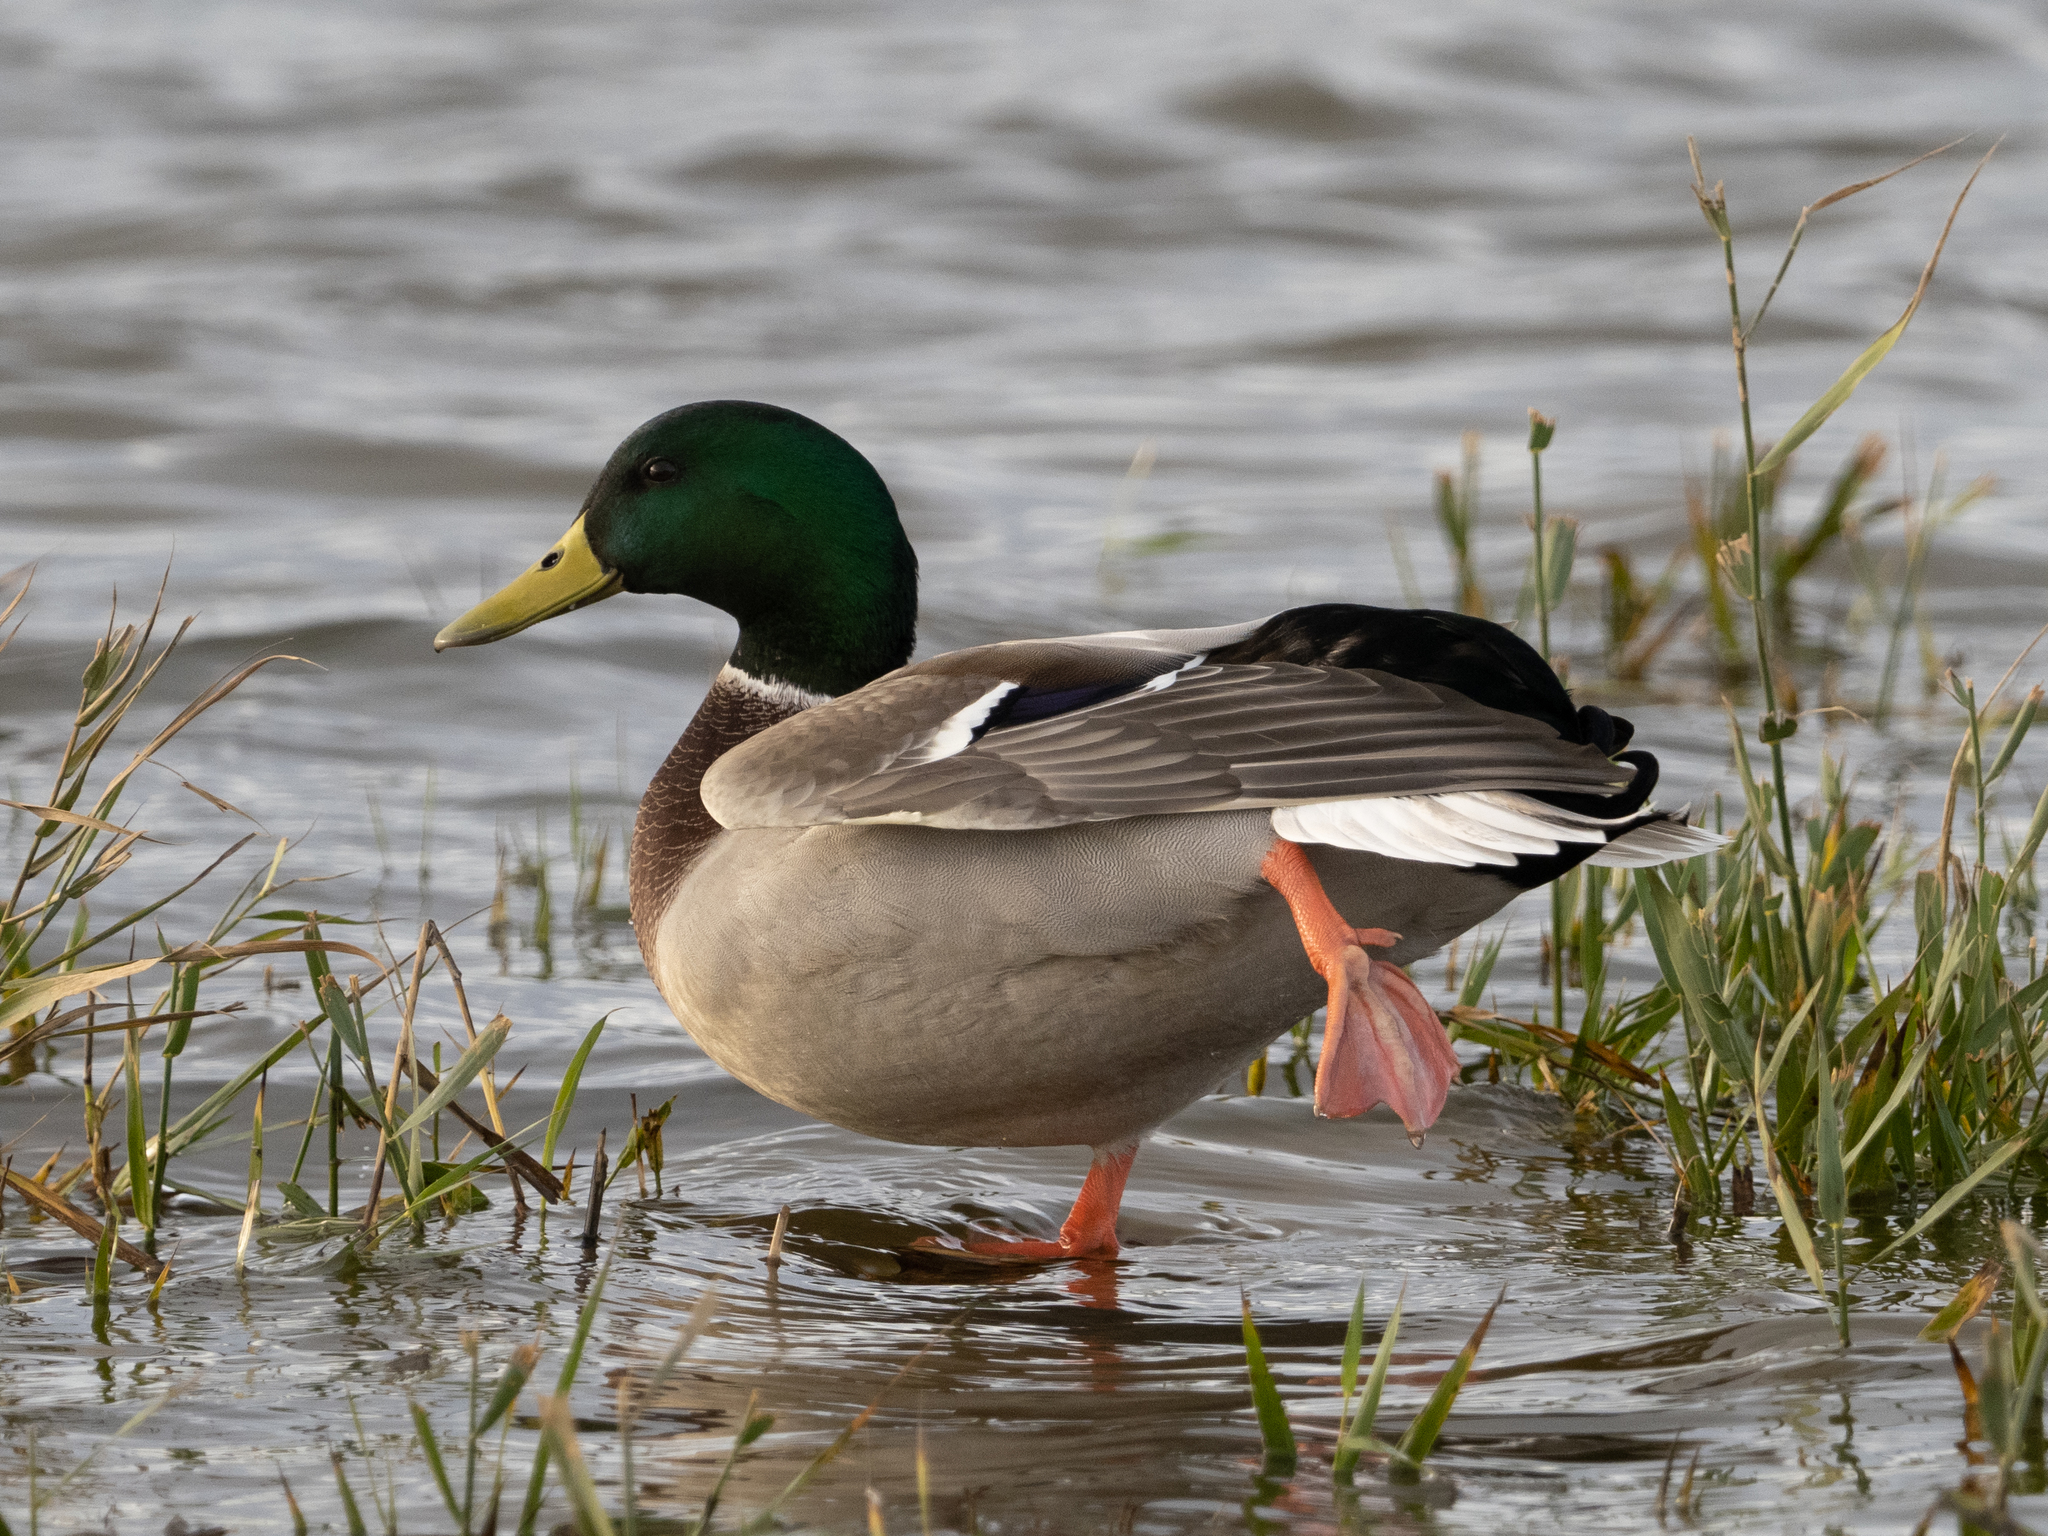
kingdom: Animalia
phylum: Chordata
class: Aves
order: Anseriformes
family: Anatidae
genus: Anas
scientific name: Anas platyrhynchos
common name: Mallard
